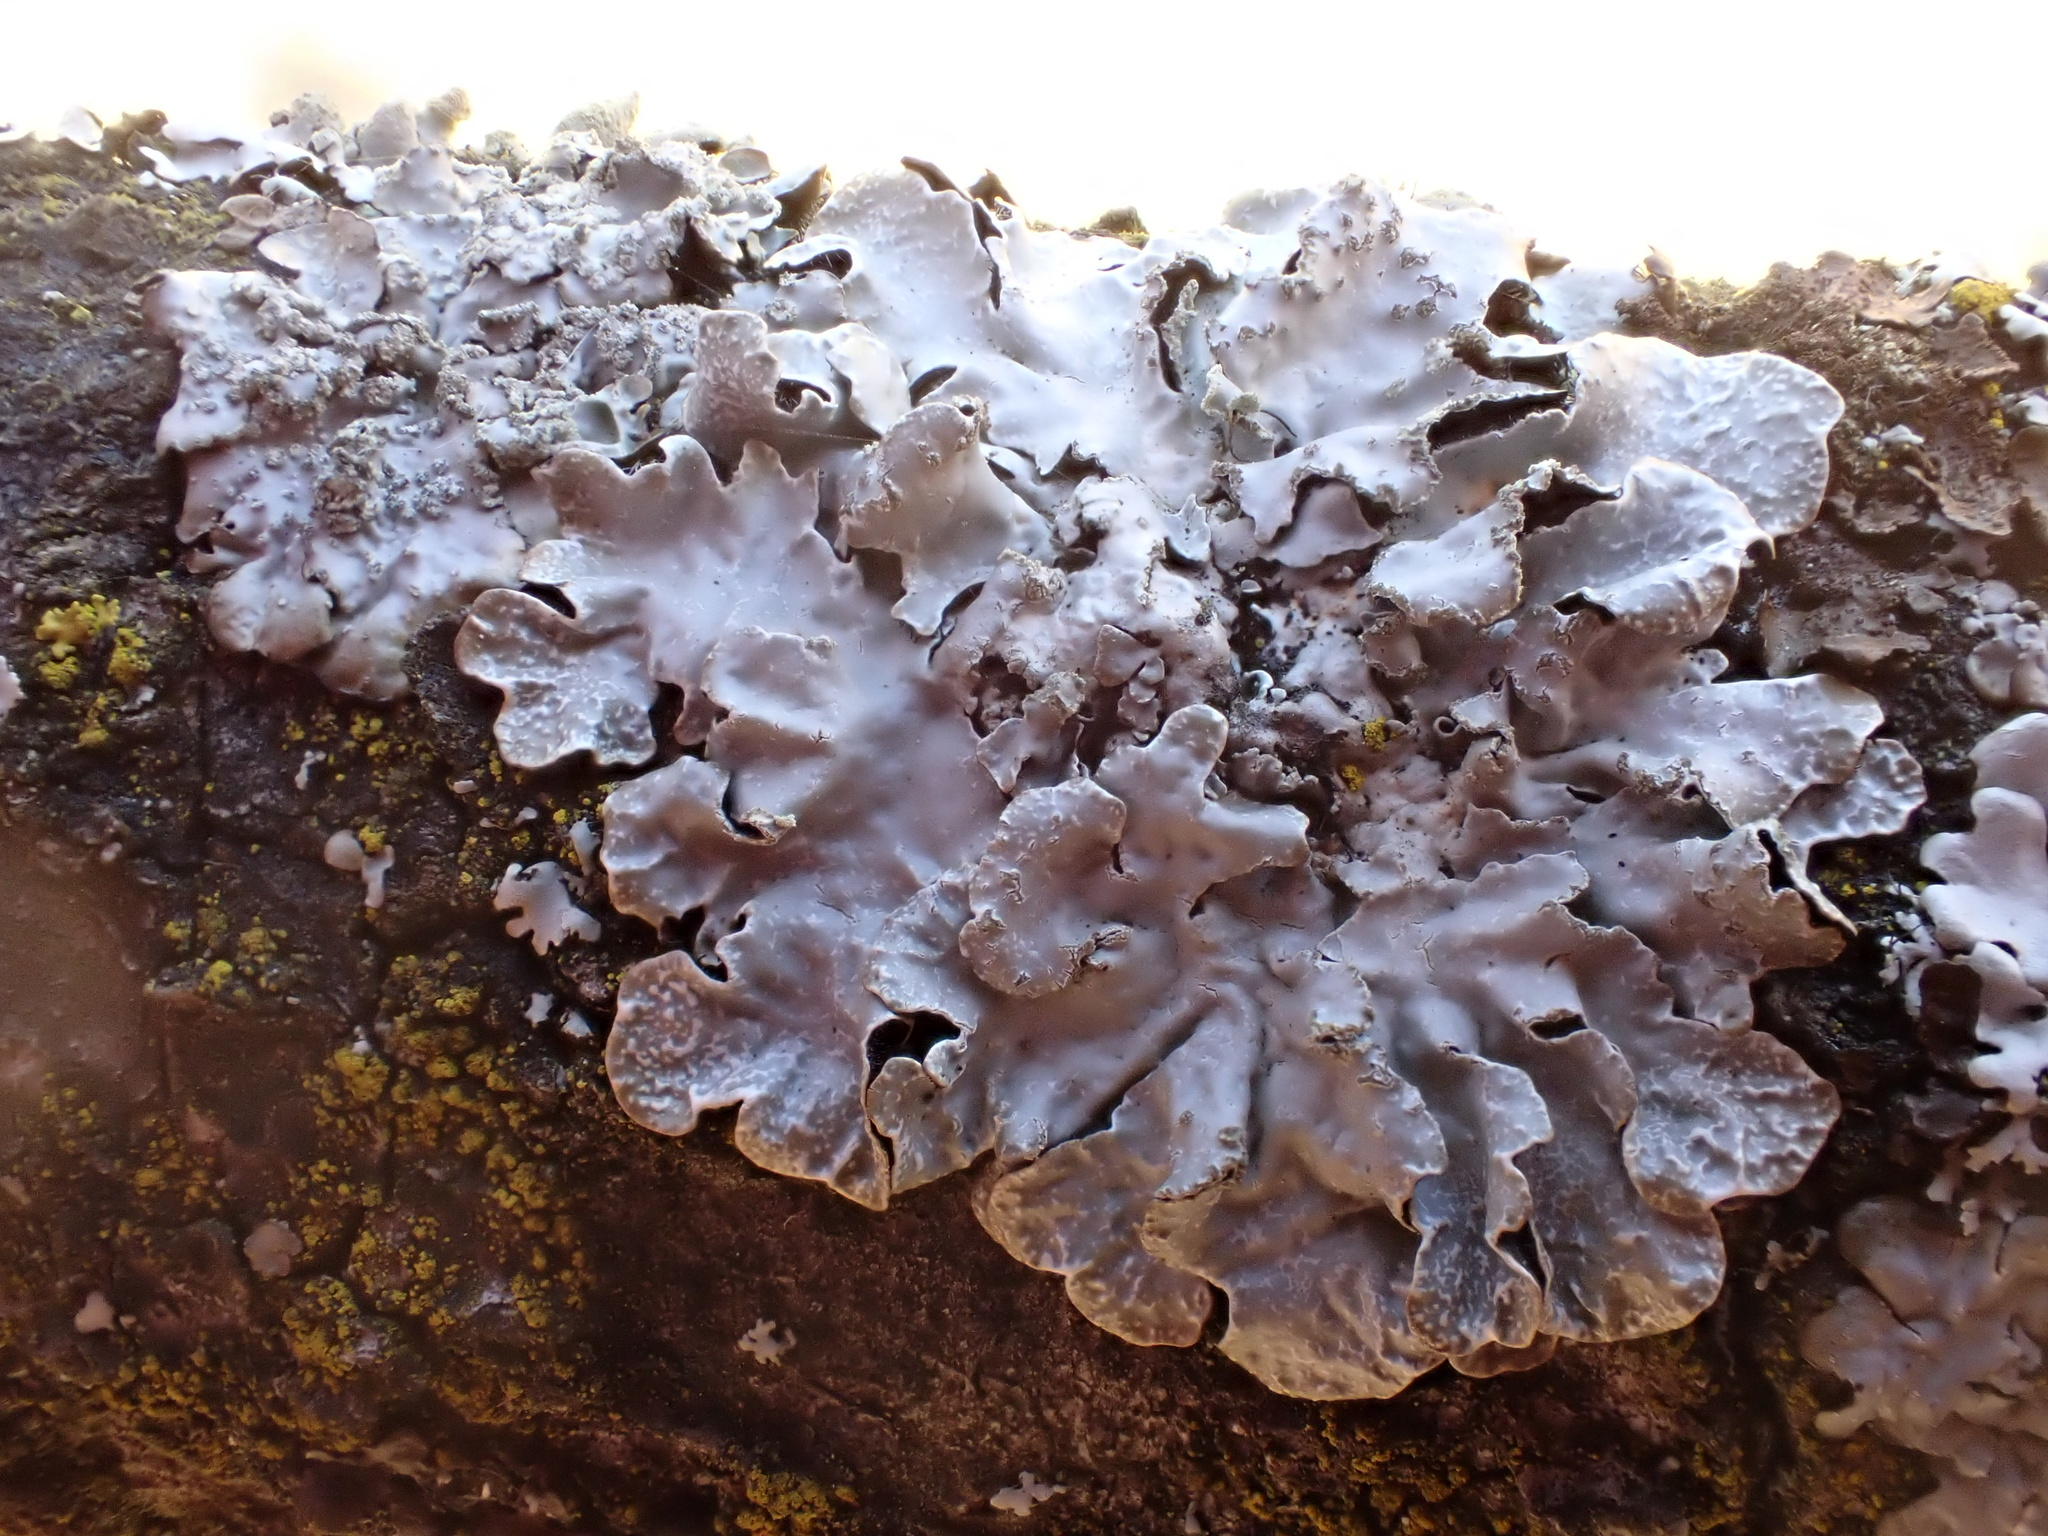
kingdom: Fungi
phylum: Ascomycota
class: Lecanoromycetes
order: Lecanorales
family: Parmeliaceae
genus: Parmelia
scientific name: Parmelia sulcata
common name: Netted shield lichen
